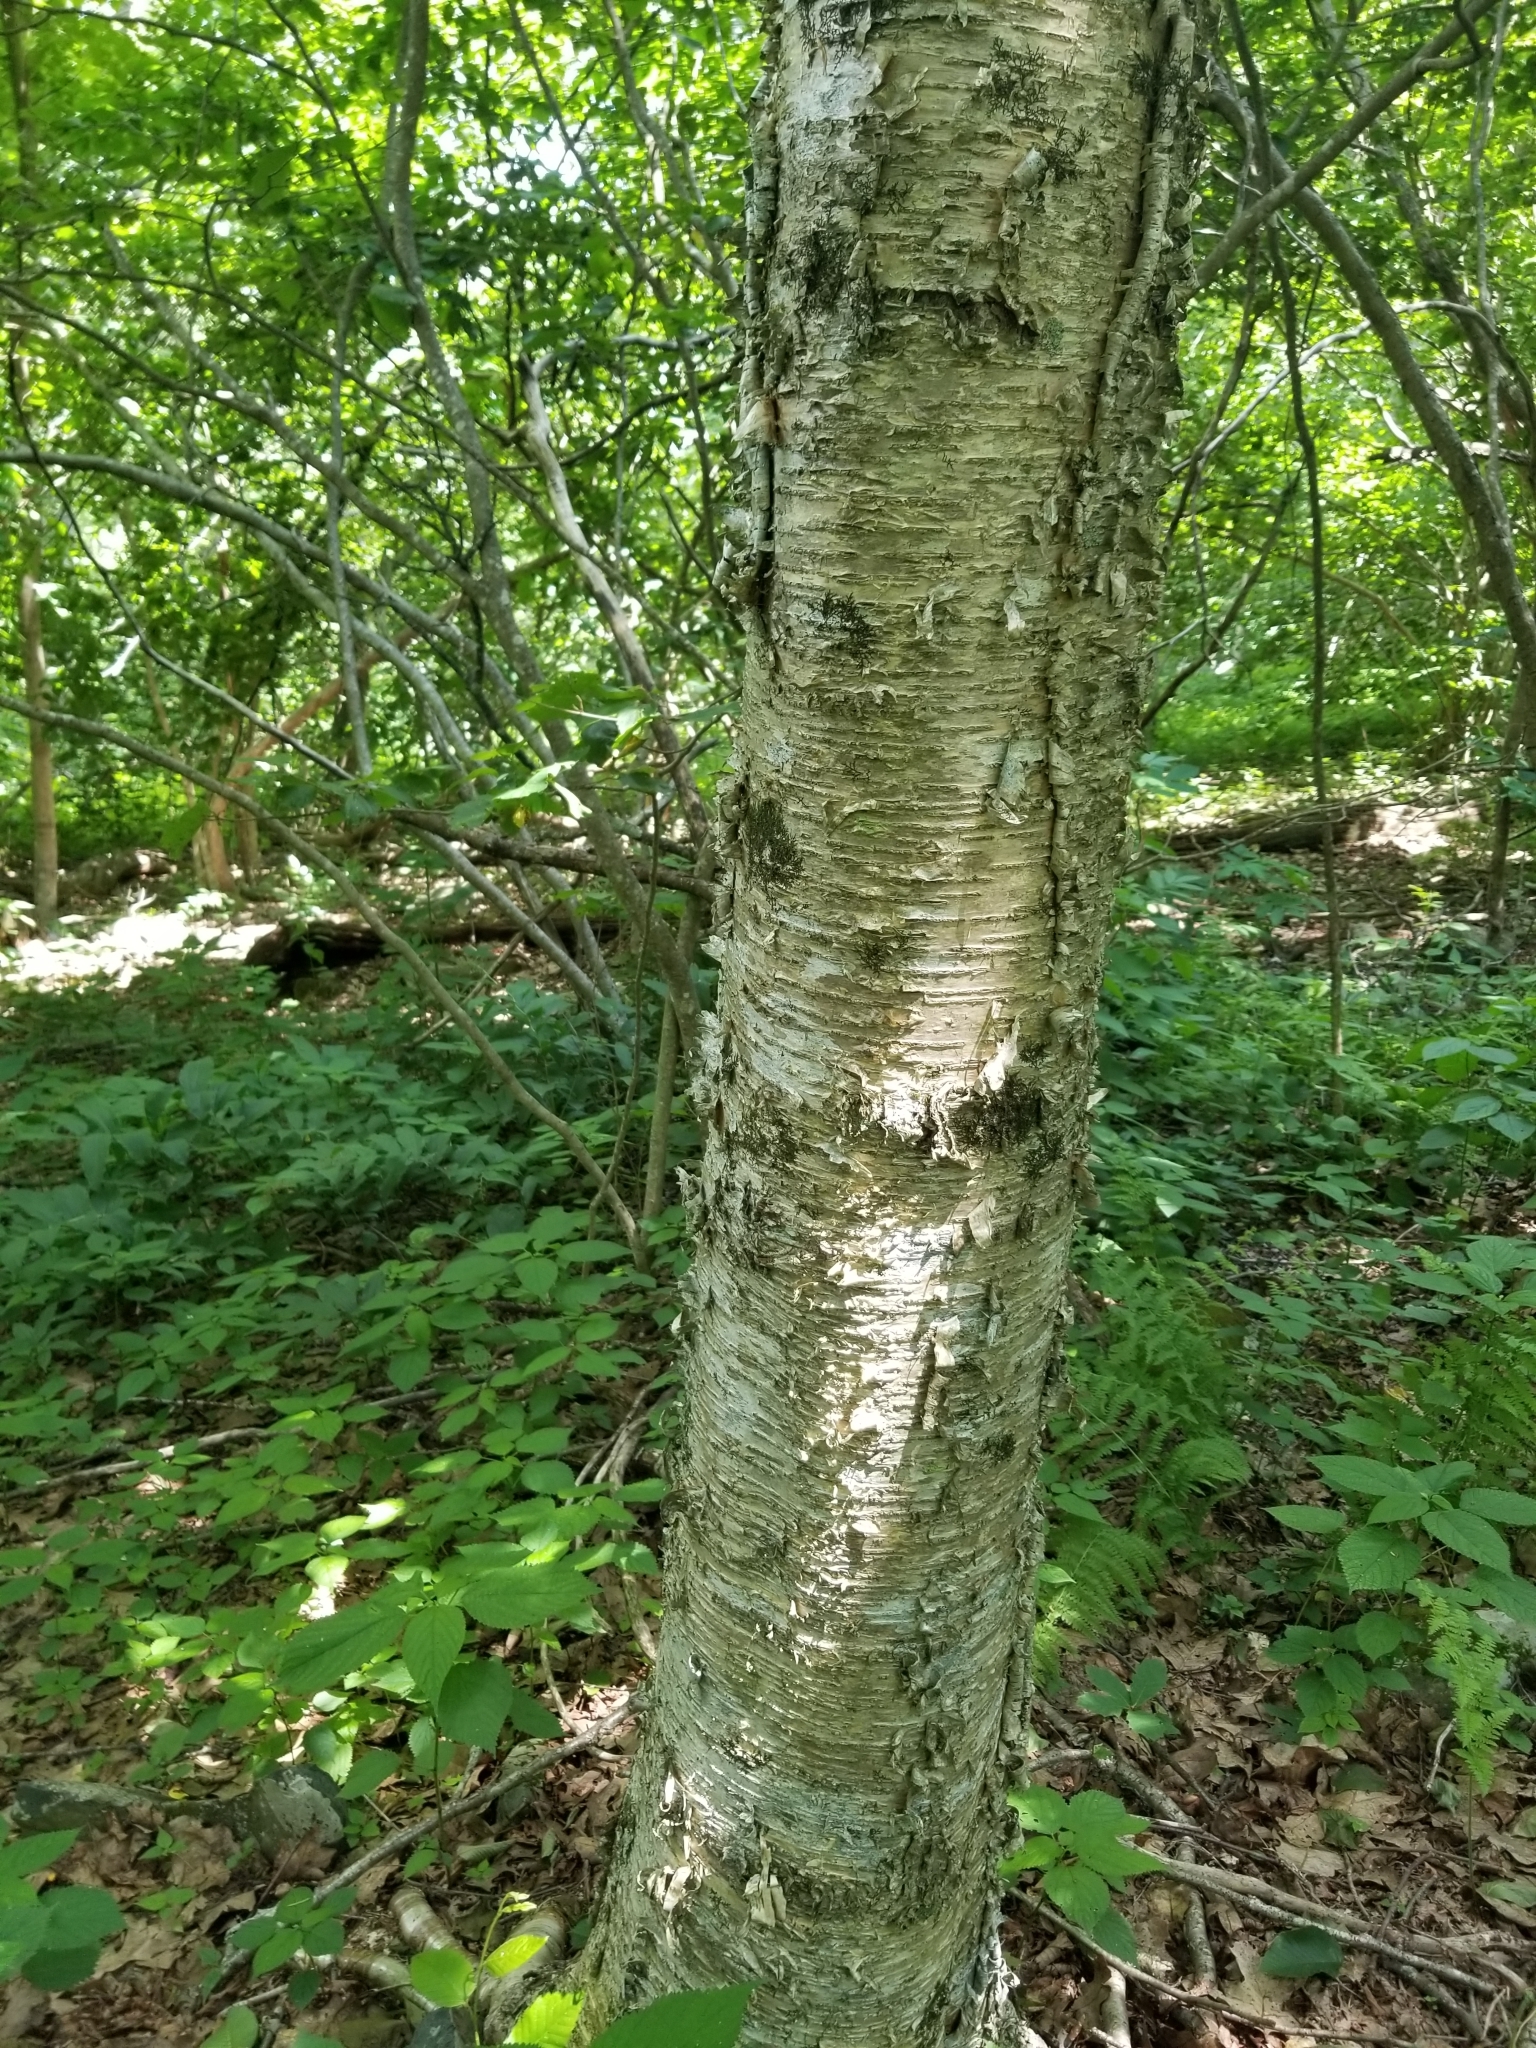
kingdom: Plantae
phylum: Tracheophyta
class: Magnoliopsida
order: Fagales
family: Betulaceae
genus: Betula
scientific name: Betula alleghaniensis
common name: Yellow birch
